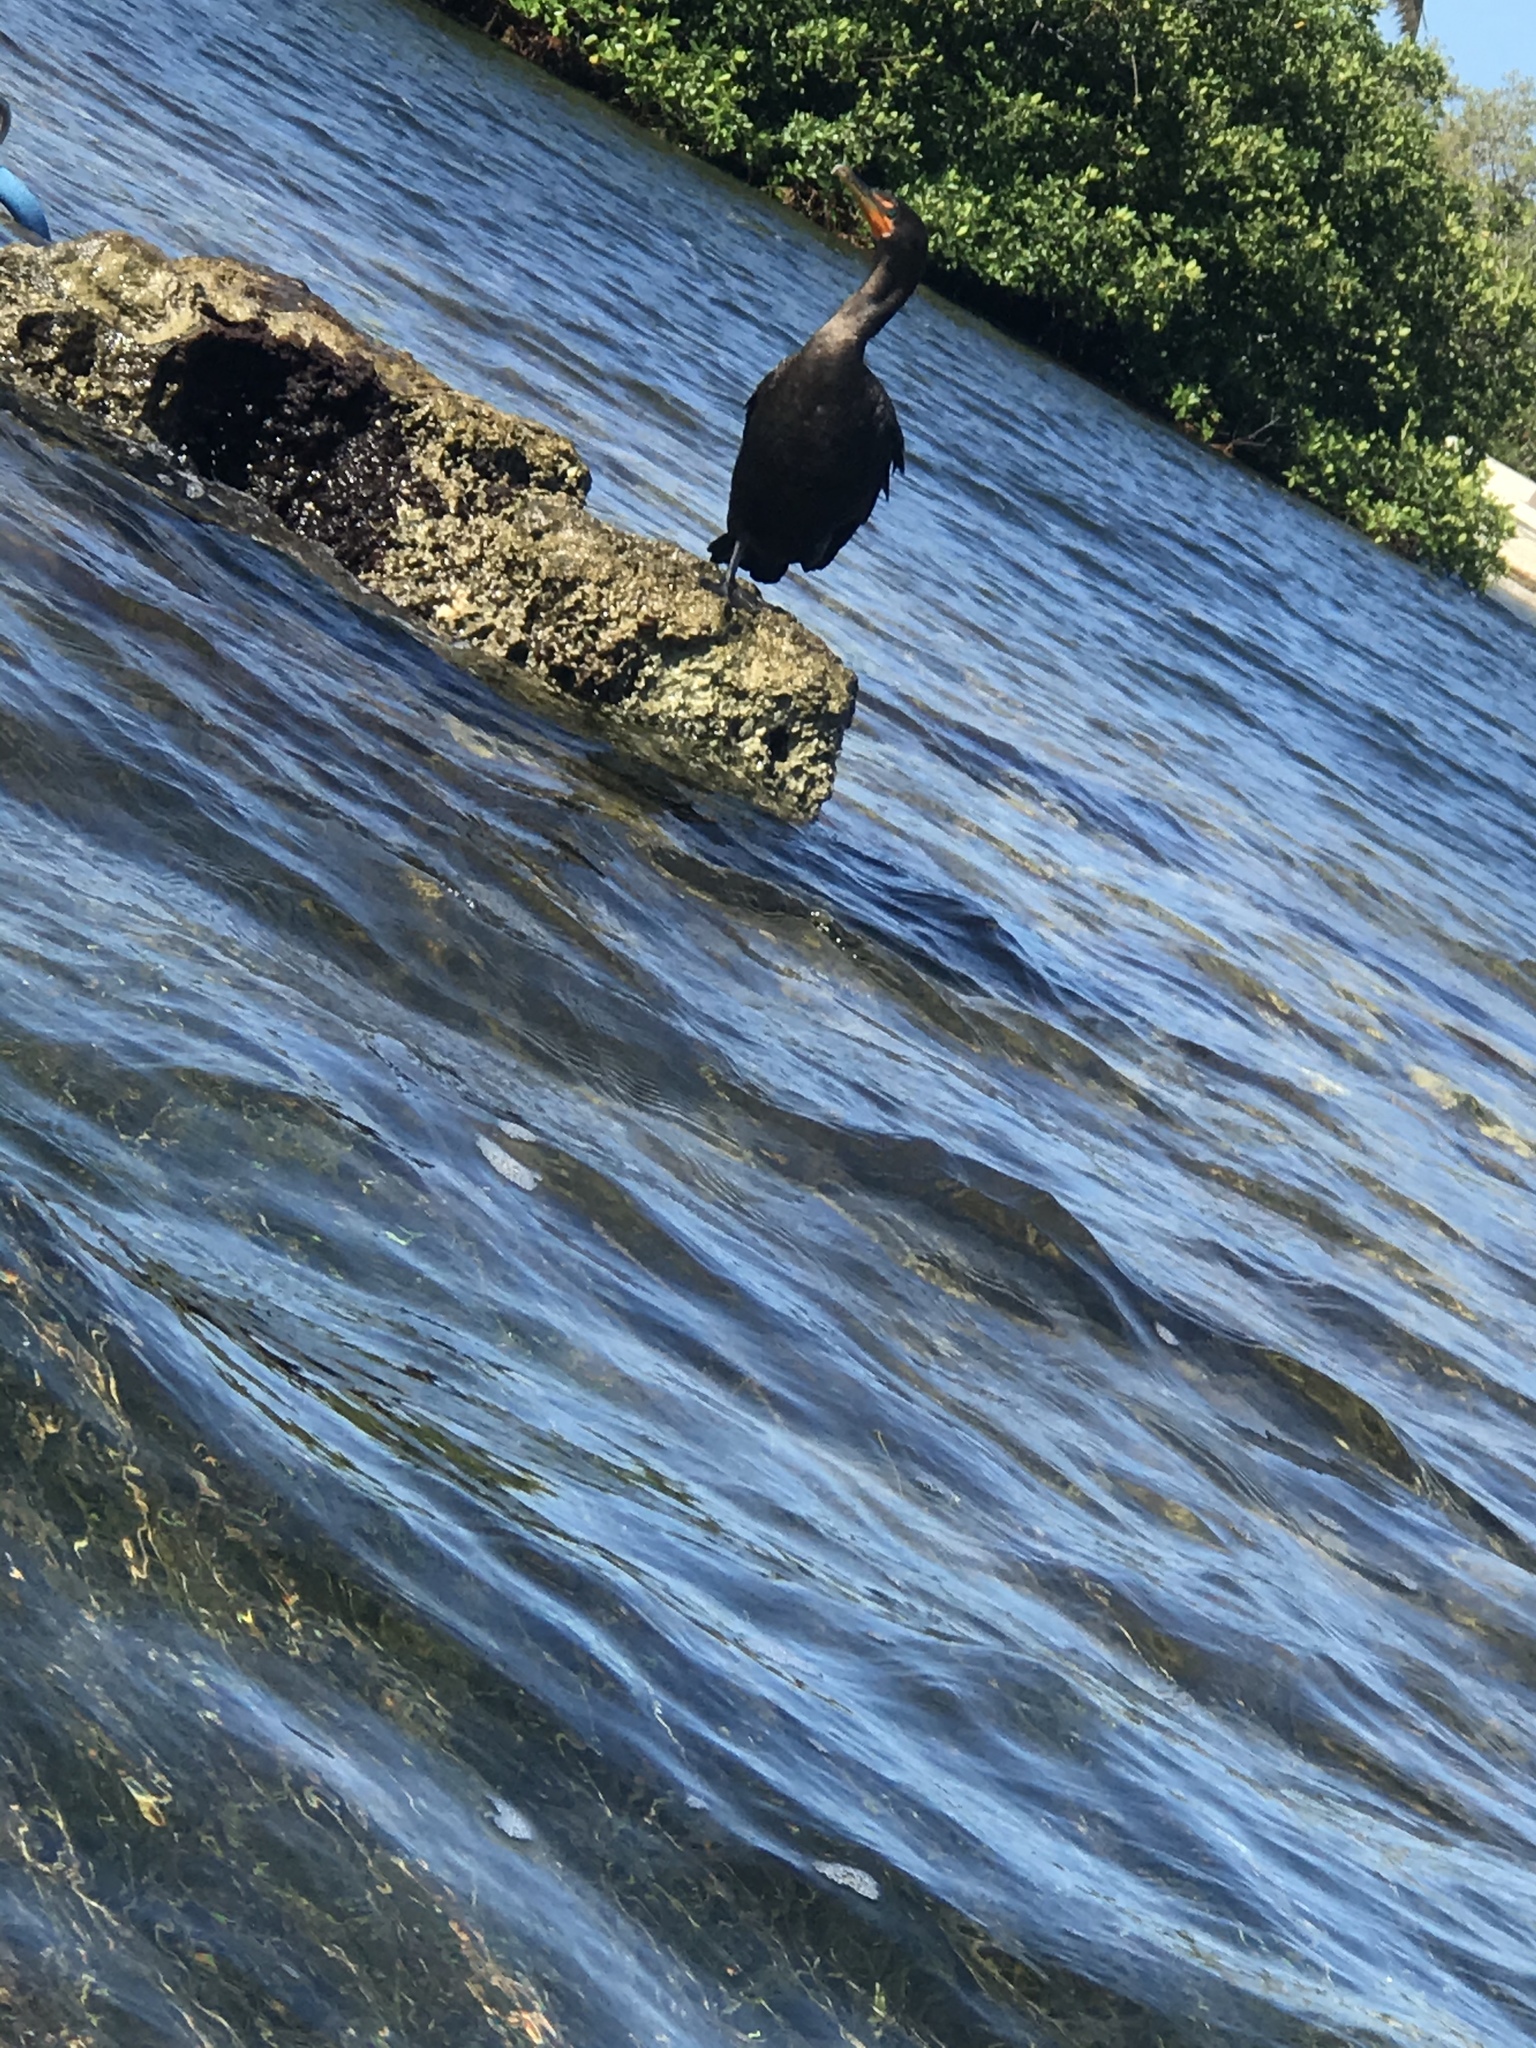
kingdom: Animalia
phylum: Chordata
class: Aves
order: Suliformes
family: Phalacrocoracidae
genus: Phalacrocorax
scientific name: Phalacrocorax auritus
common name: Double-crested cormorant
